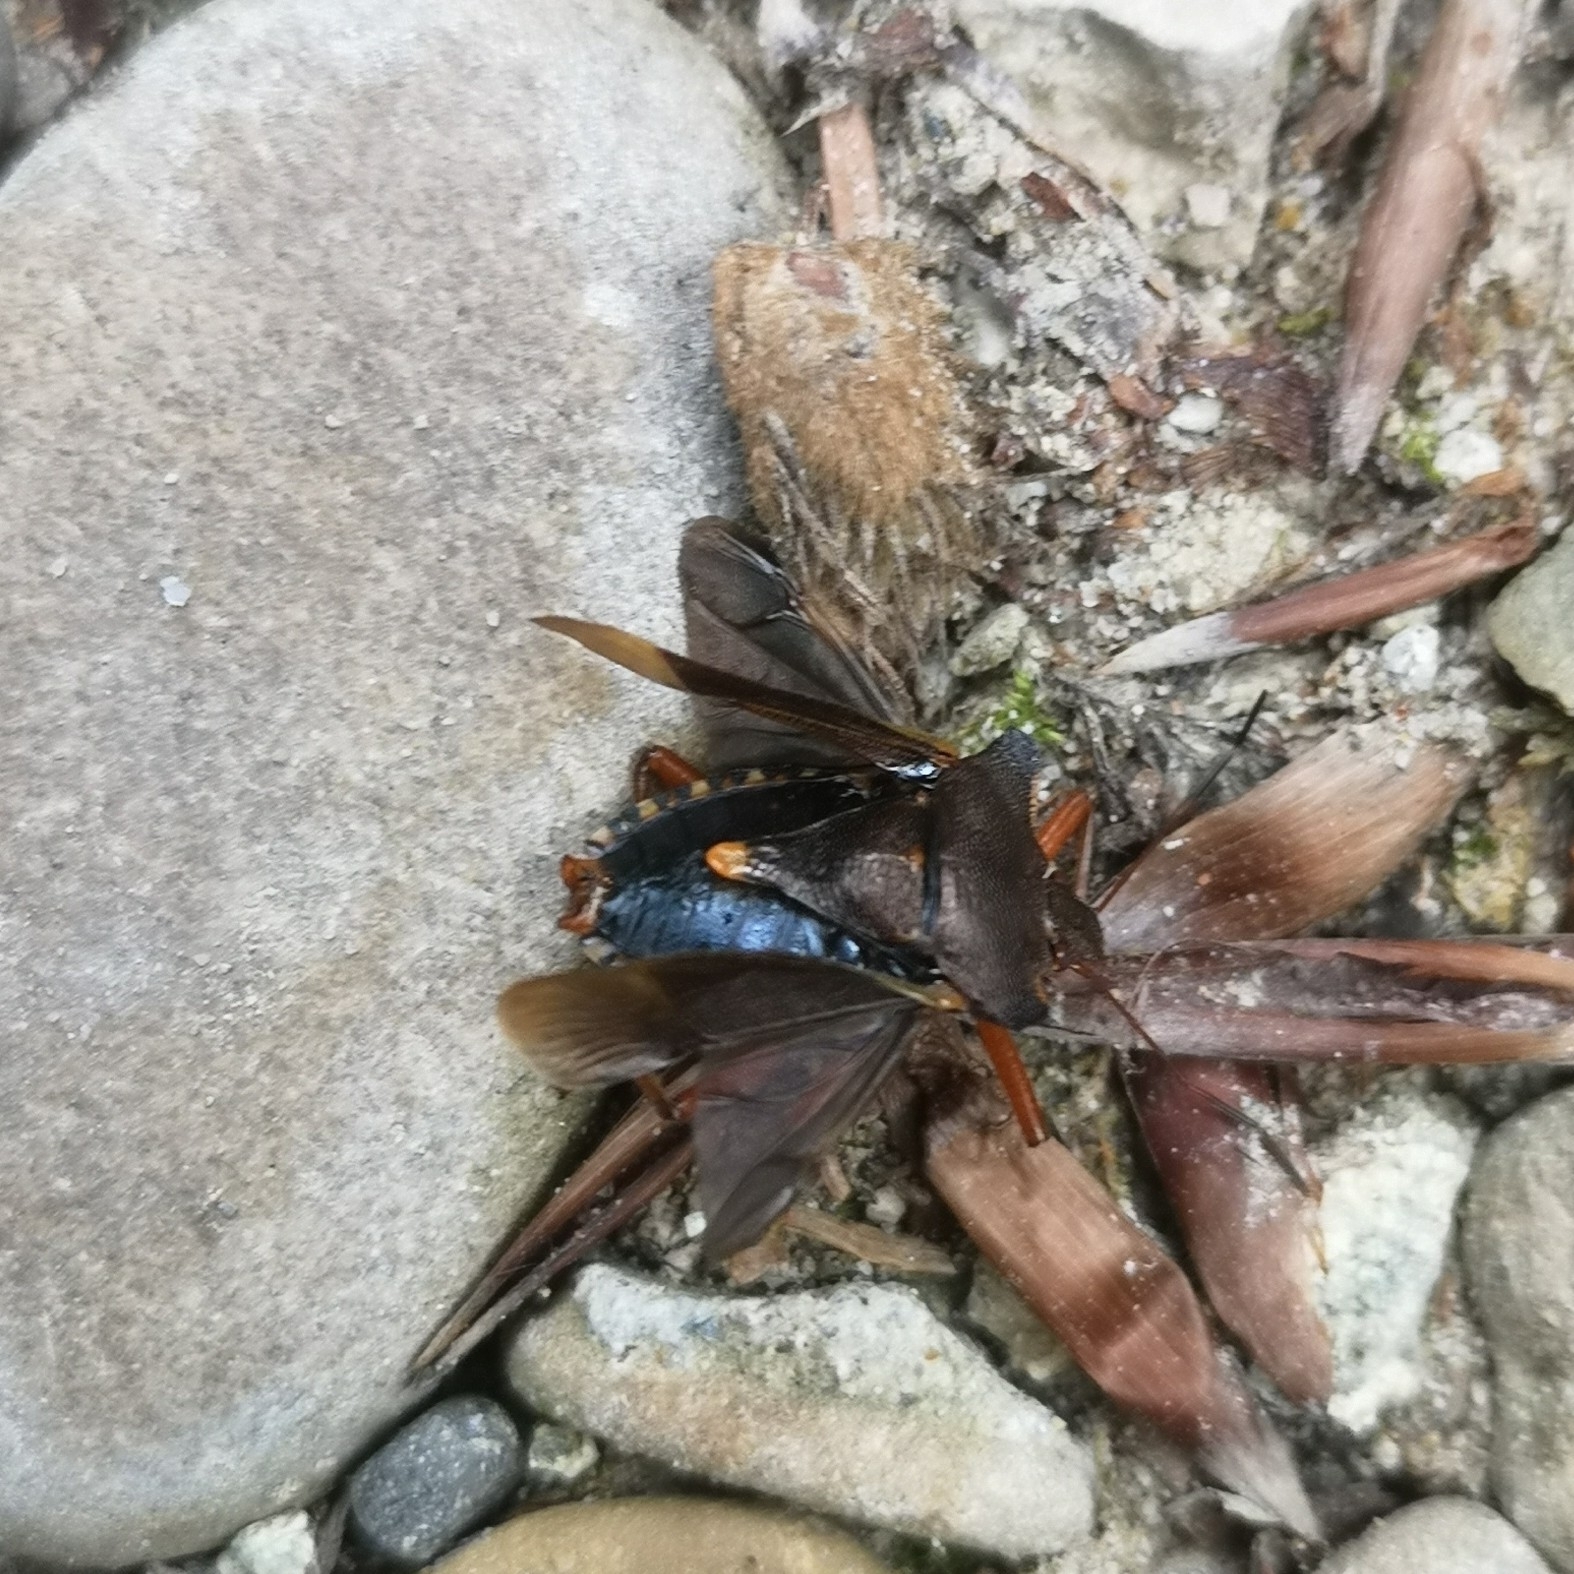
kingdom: Animalia
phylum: Arthropoda
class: Insecta
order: Hemiptera
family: Pentatomidae
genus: Pentatoma
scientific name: Pentatoma rufipes
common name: Forest bug
